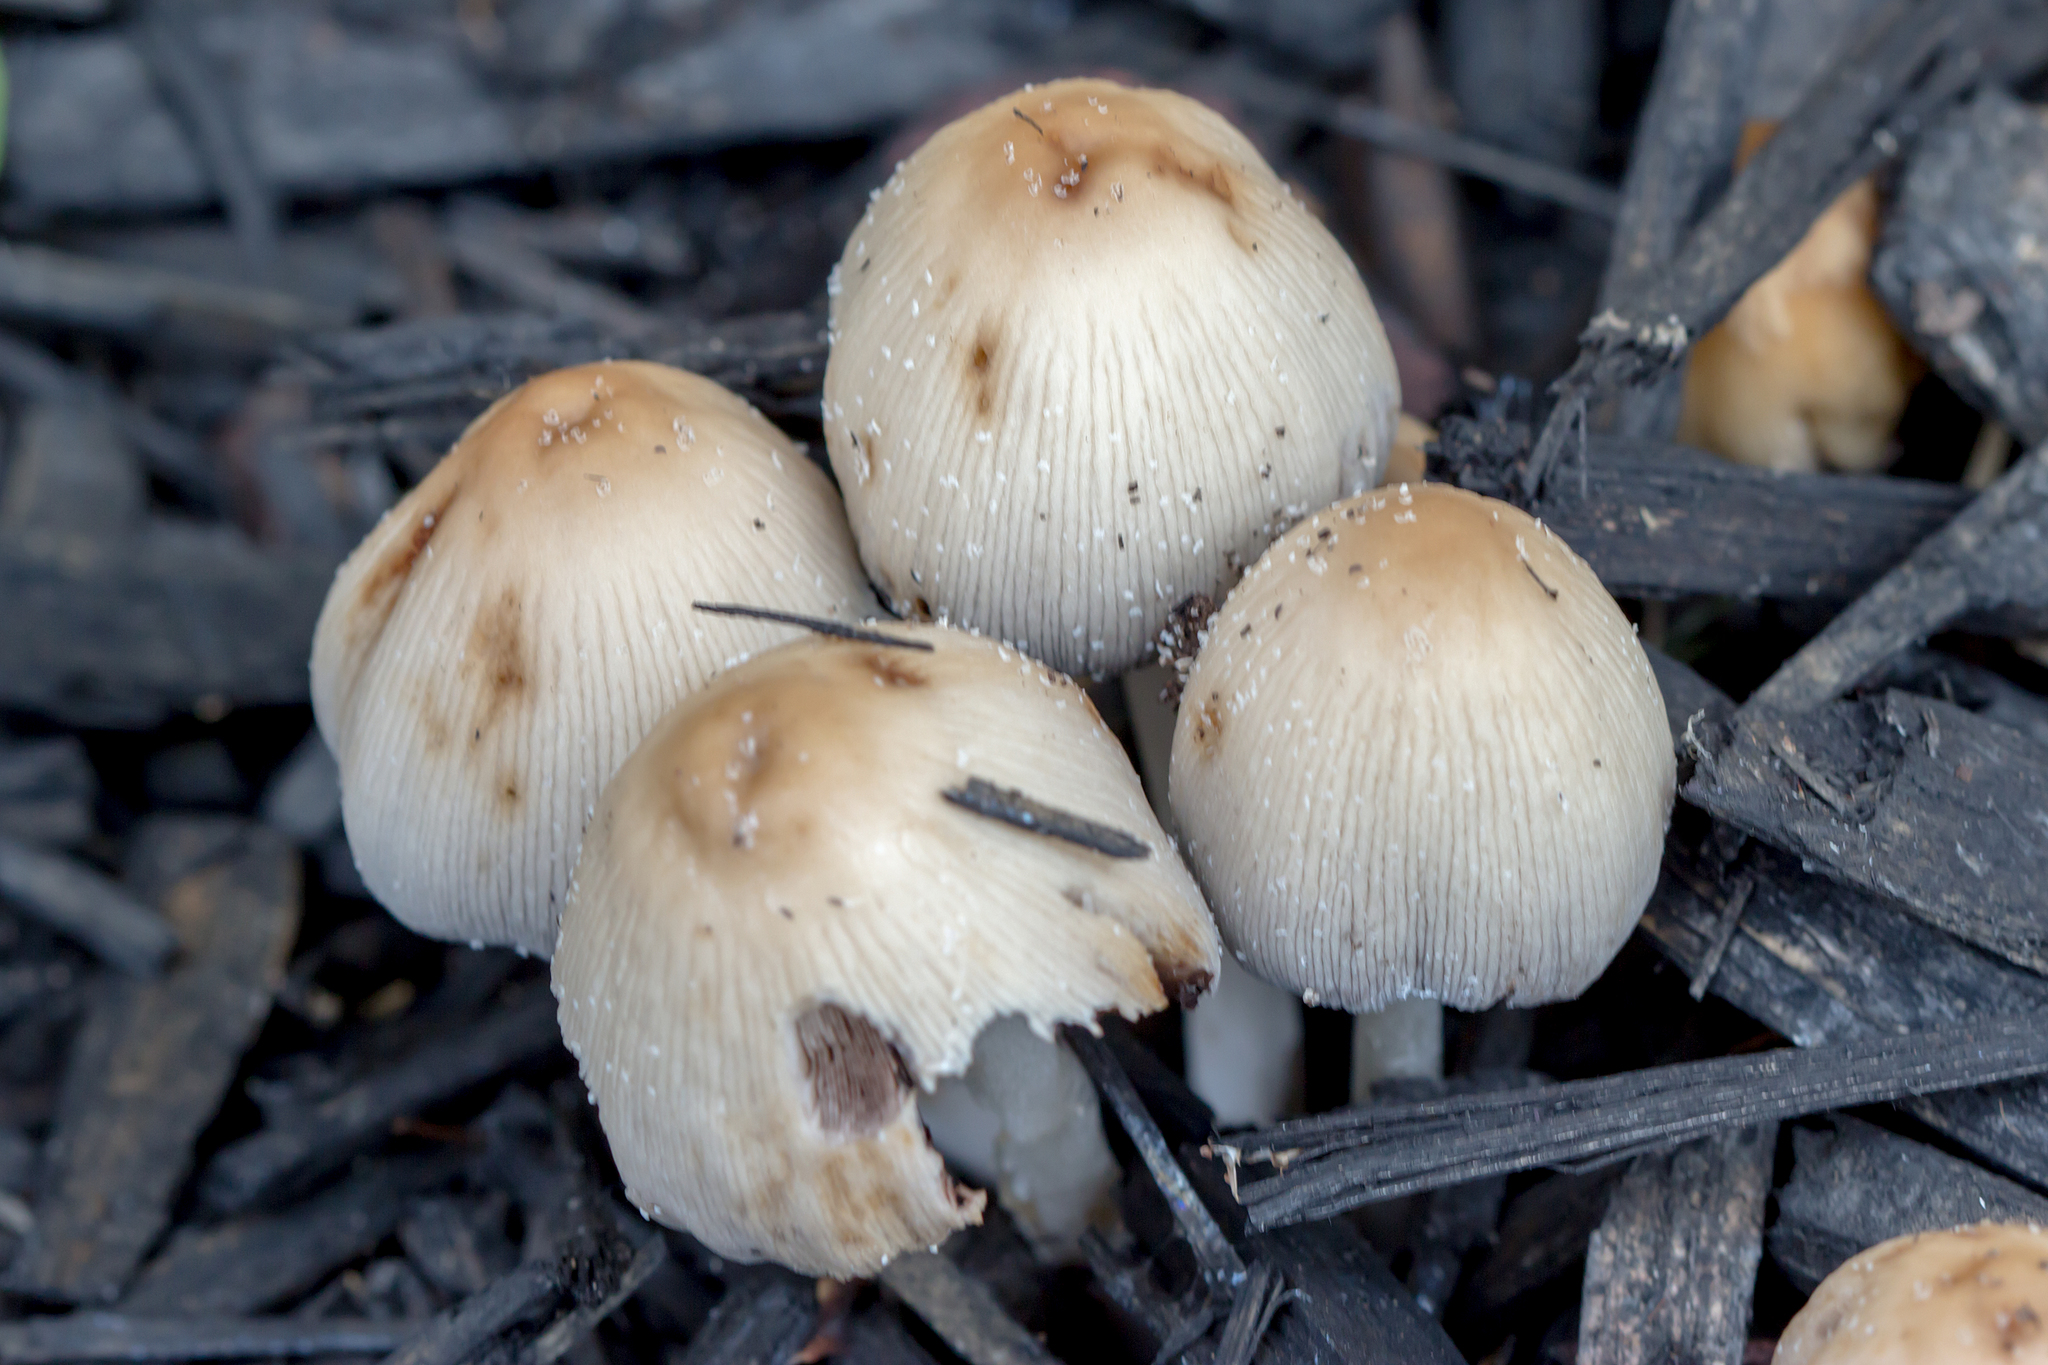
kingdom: Fungi
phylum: Basidiomycota
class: Agaricomycetes
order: Agaricales
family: Psathyrellaceae
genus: Coprinellus
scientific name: Coprinellus micaceus
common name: Glistening ink-cap
